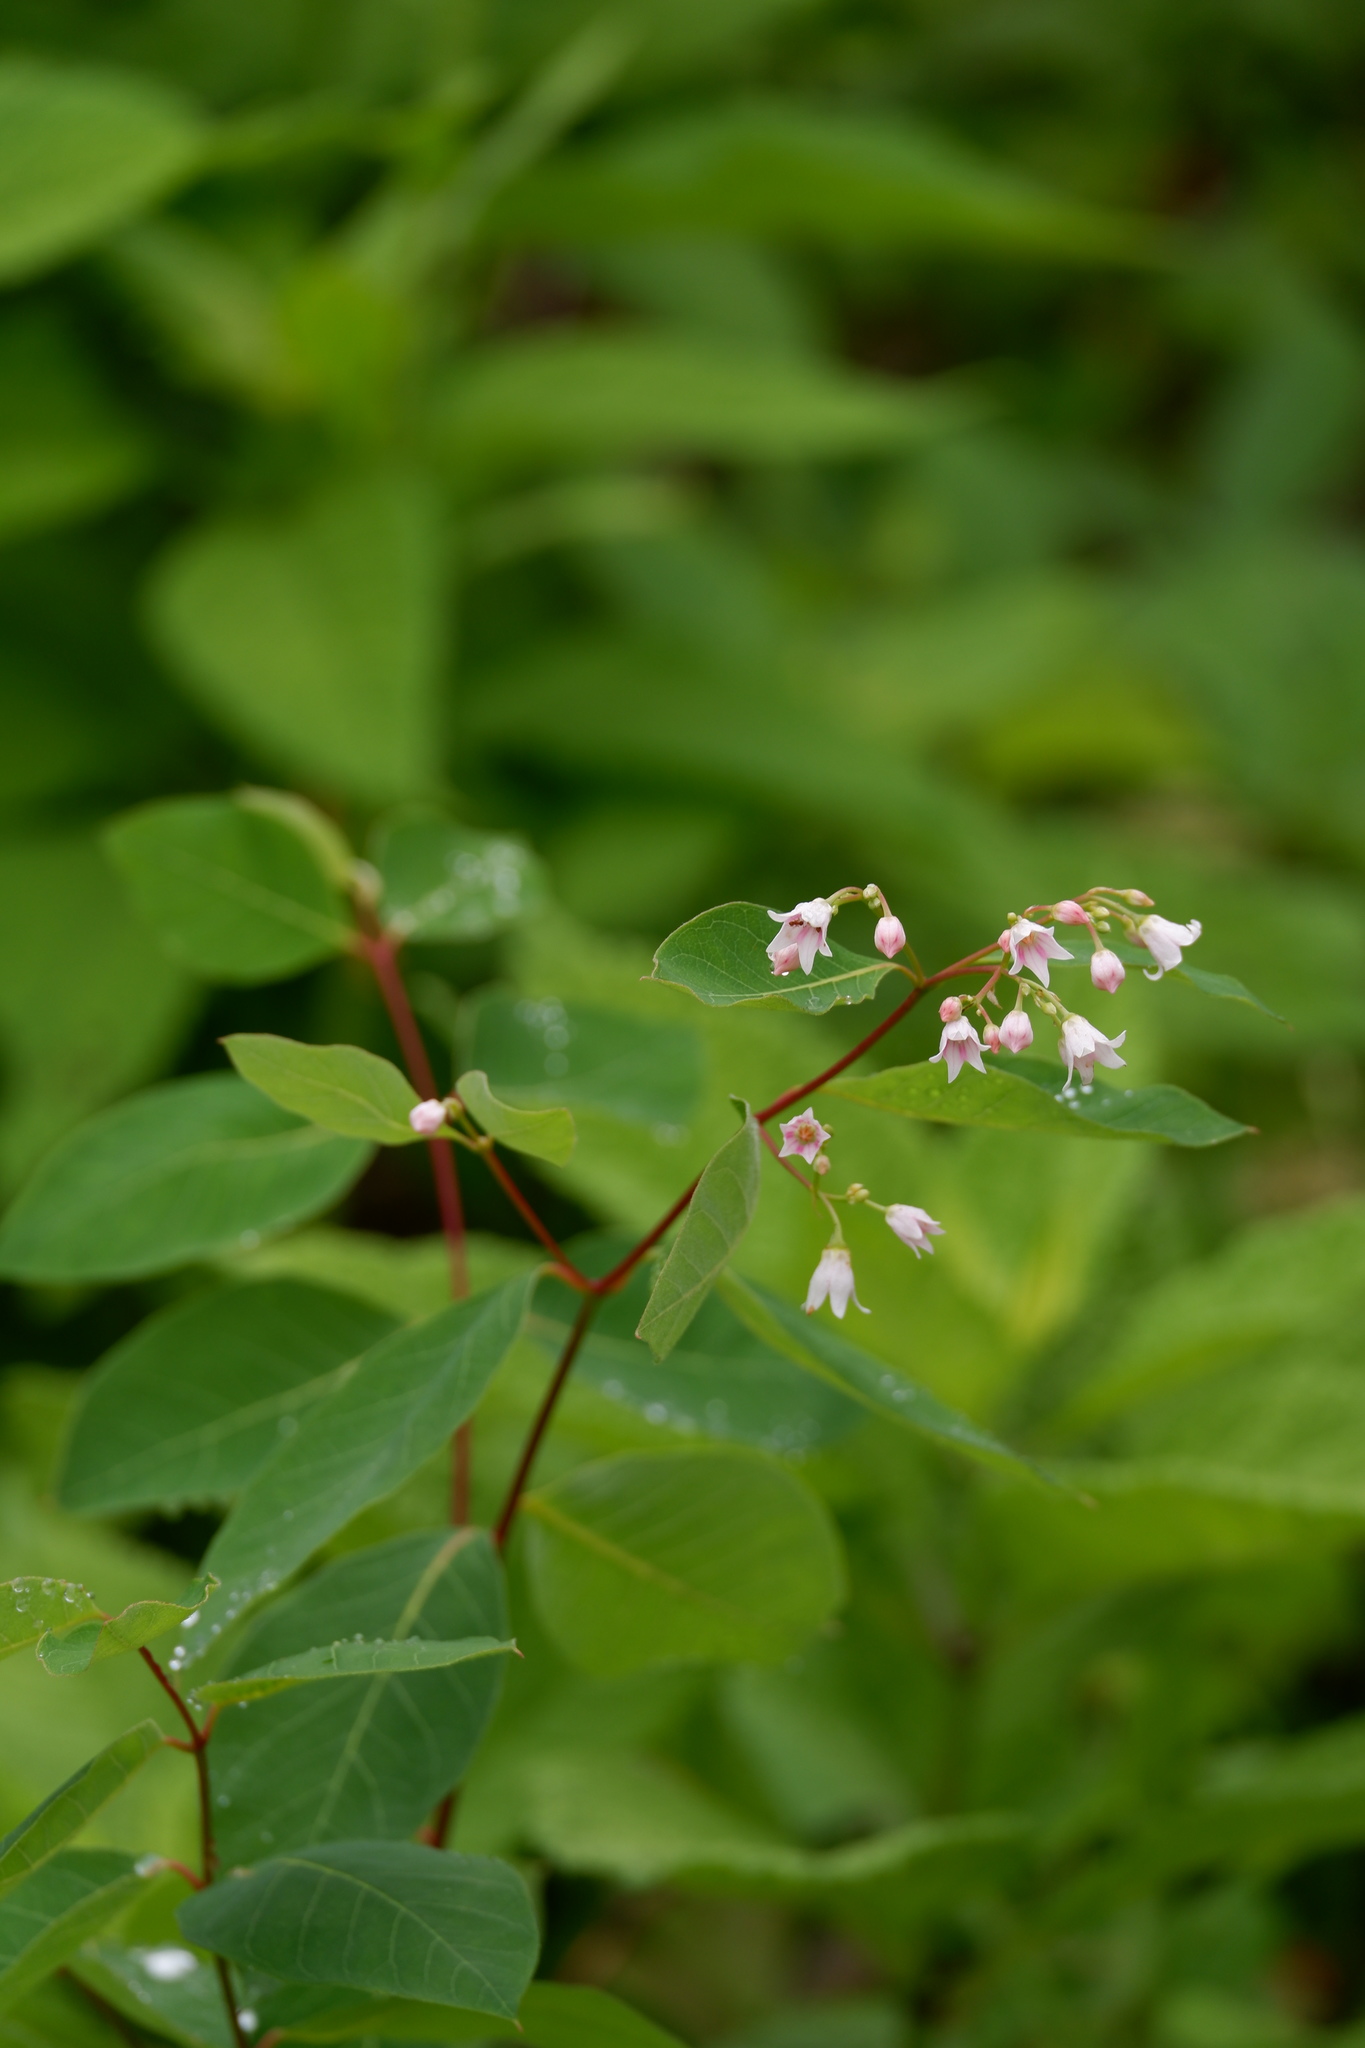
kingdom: Plantae
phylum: Tracheophyta
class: Magnoliopsida
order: Gentianales
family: Apocynaceae
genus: Apocynum
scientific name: Apocynum androsaemifolium
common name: Spreading dogbane
